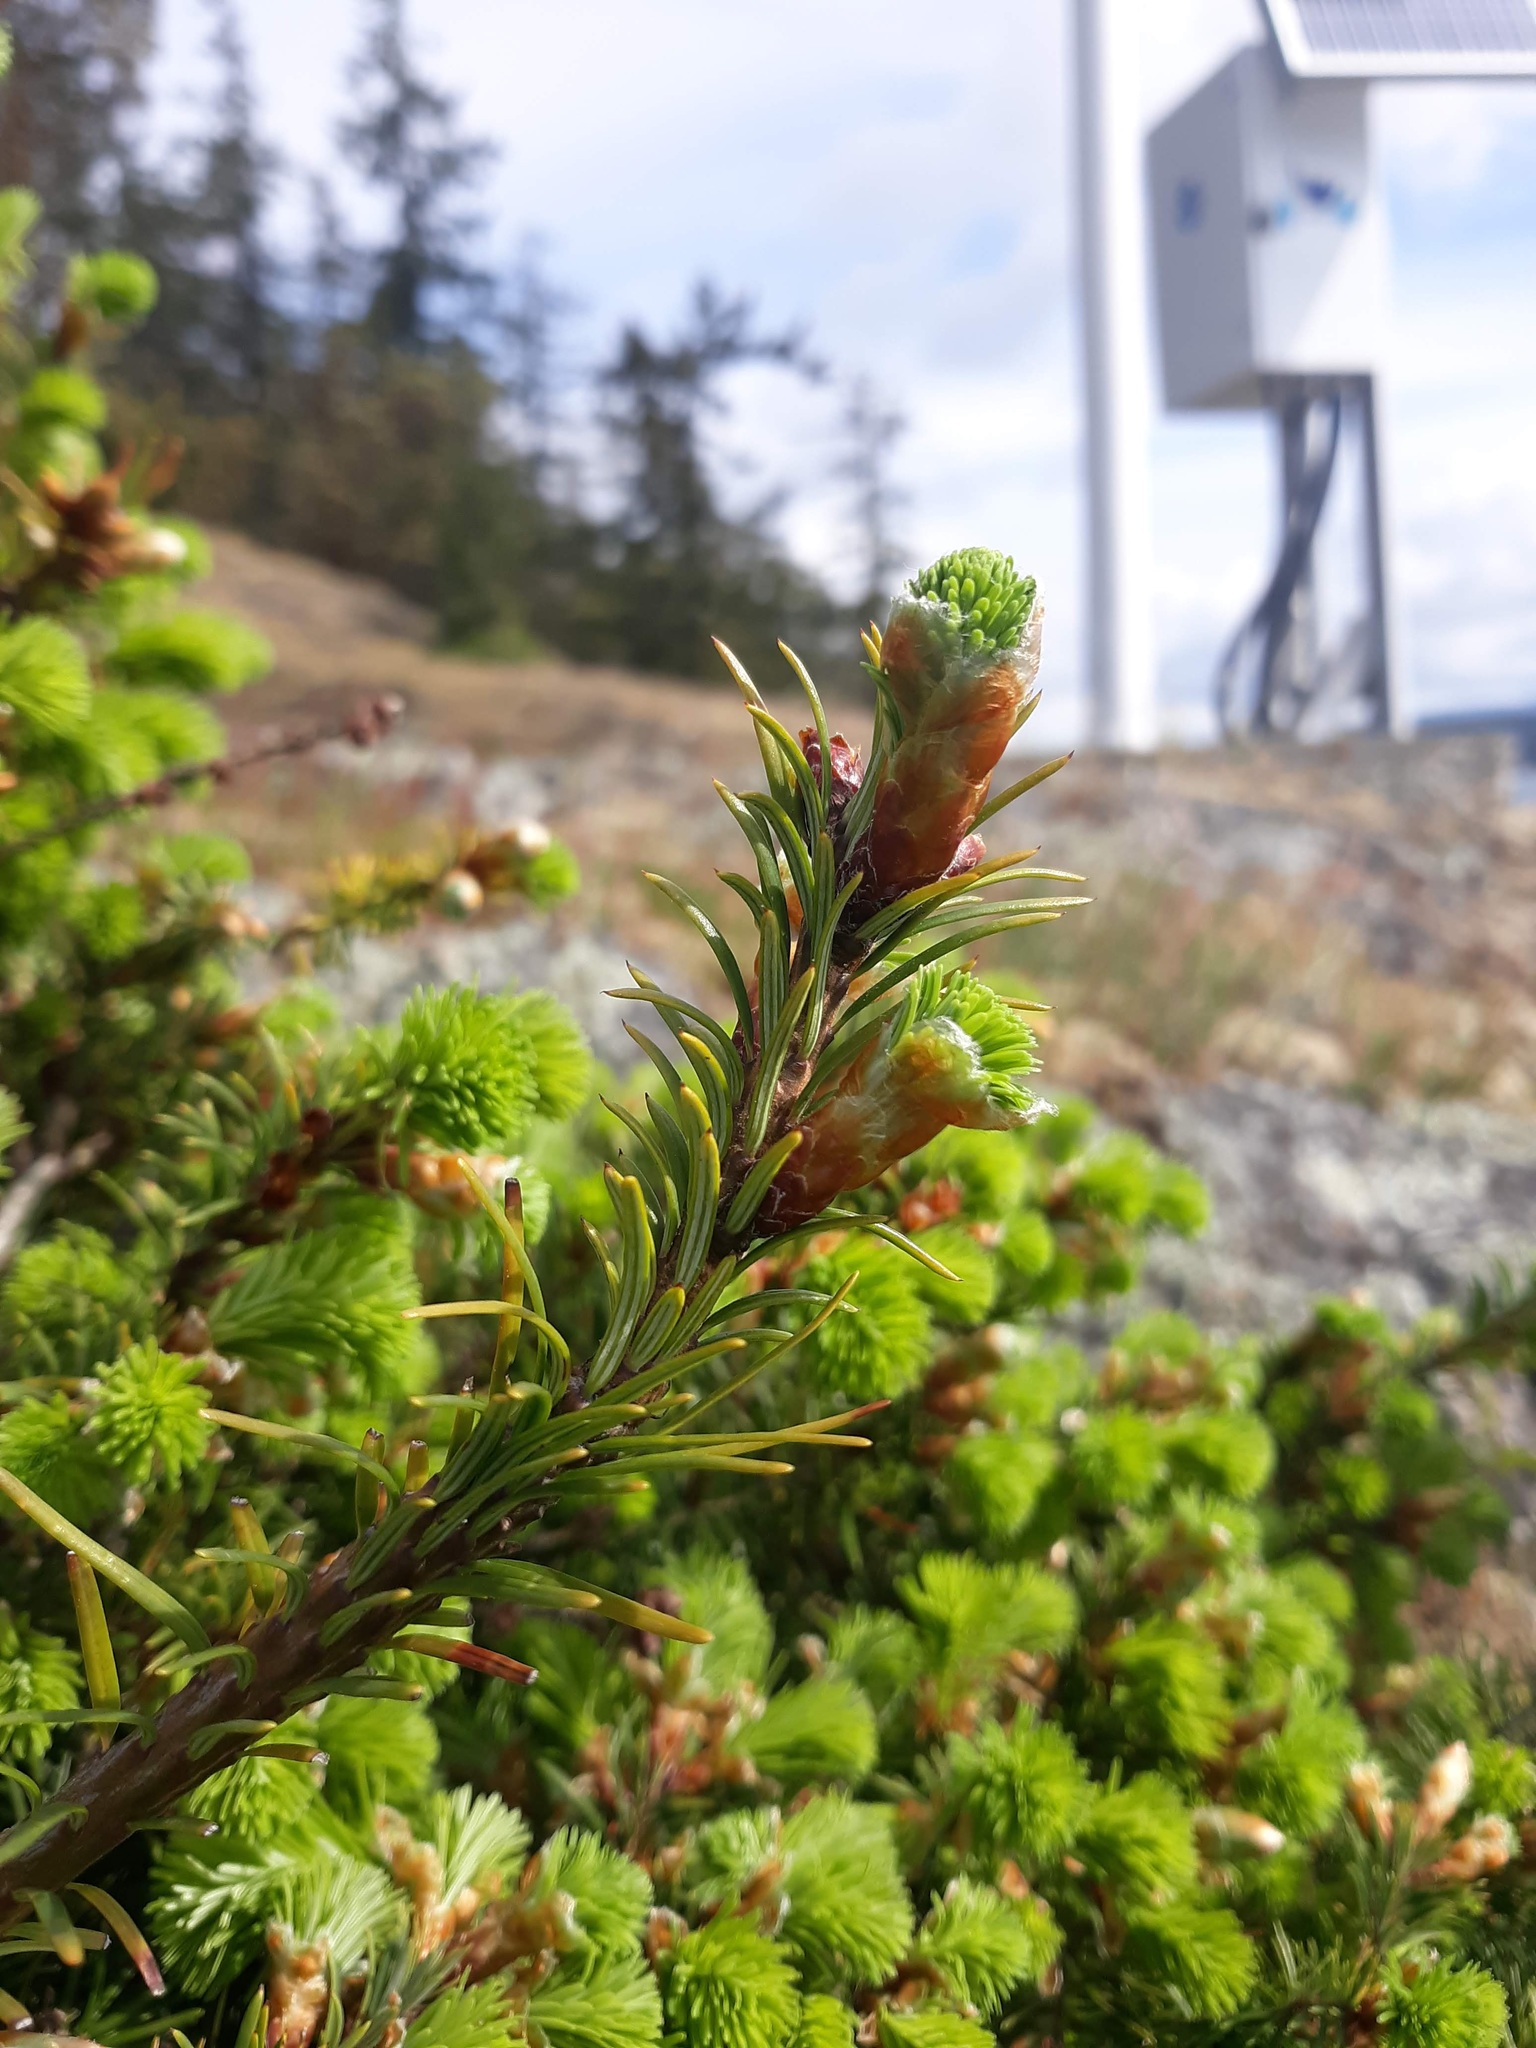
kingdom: Plantae
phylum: Tracheophyta
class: Pinopsida
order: Pinales
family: Pinaceae
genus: Picea
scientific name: Picea sitchensis
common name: Sitka spruce
